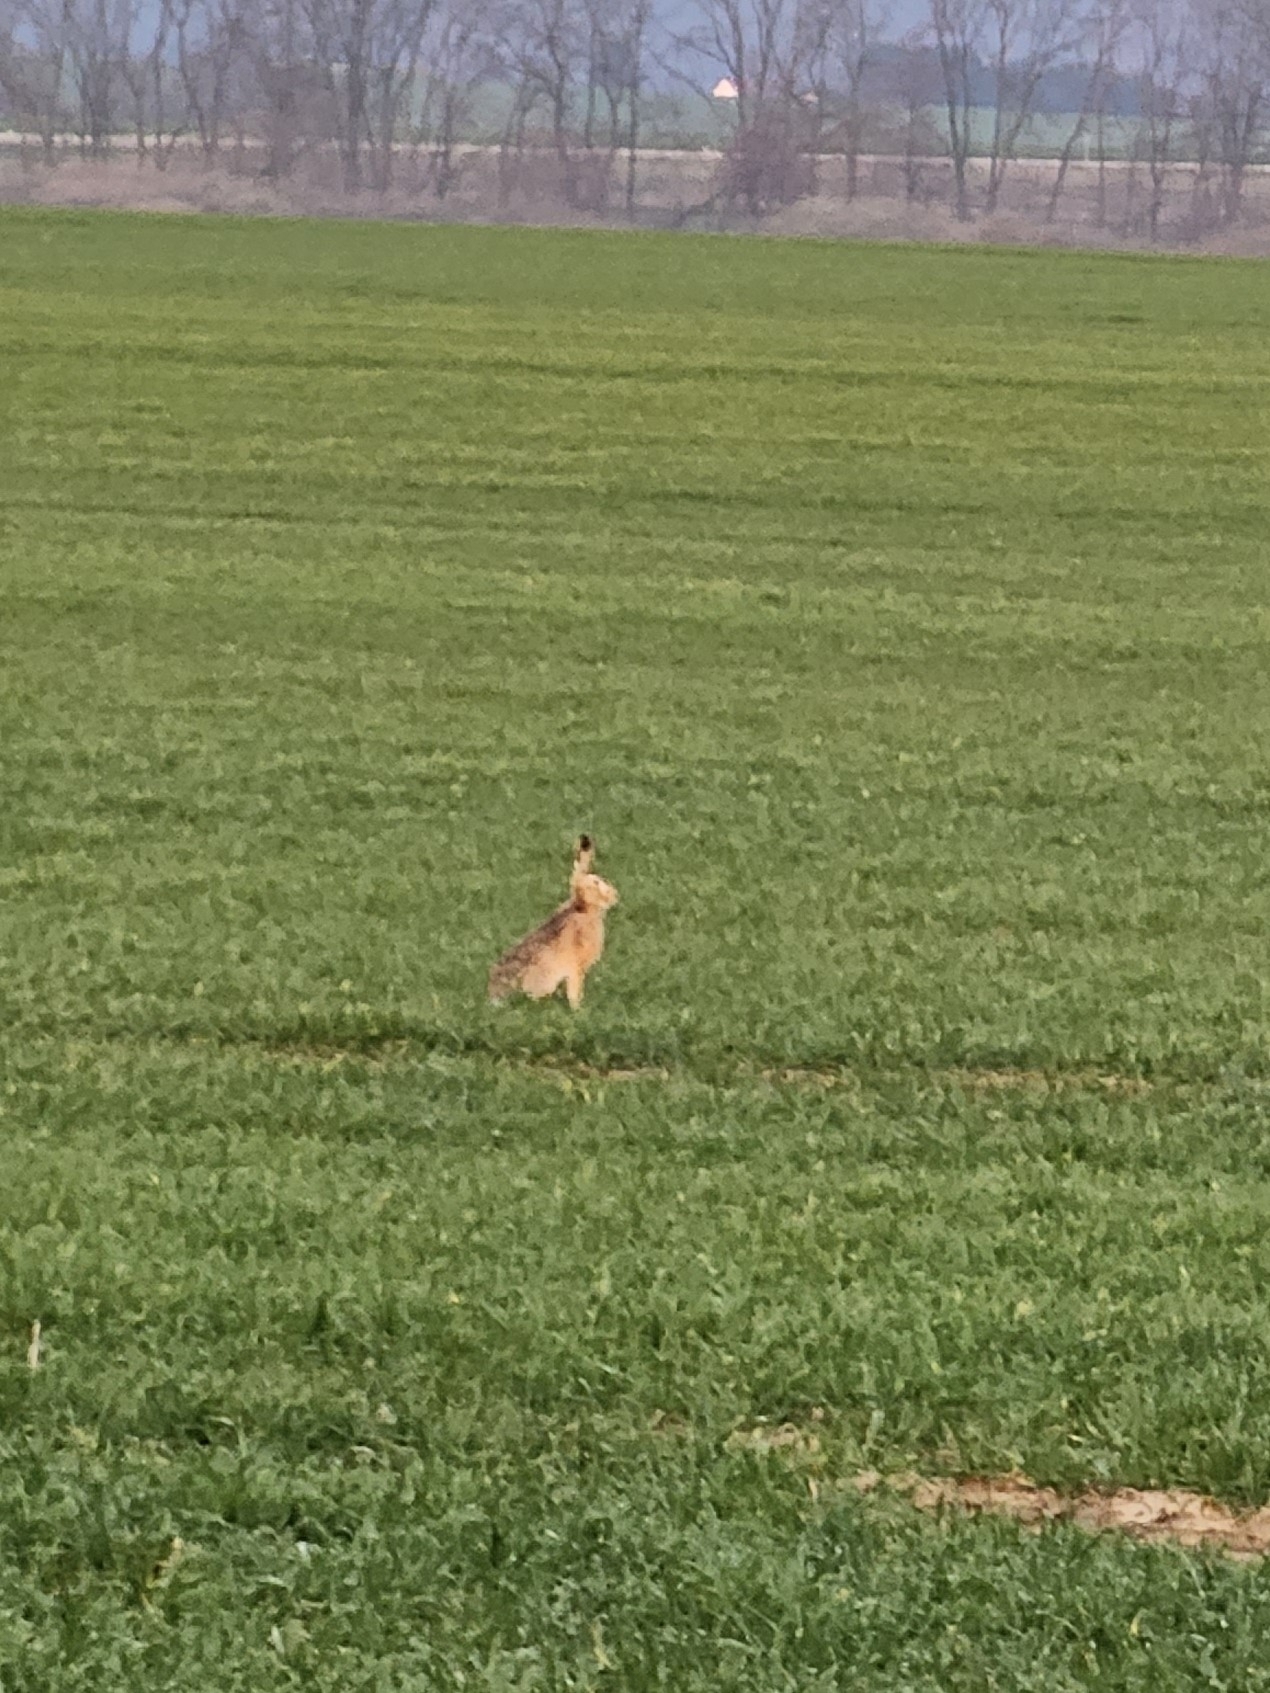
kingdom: Animalia
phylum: Chordata
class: Mammalia
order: Lagomorpha
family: Leporidae
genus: Lepus
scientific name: Lepus europaeus
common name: European hare
